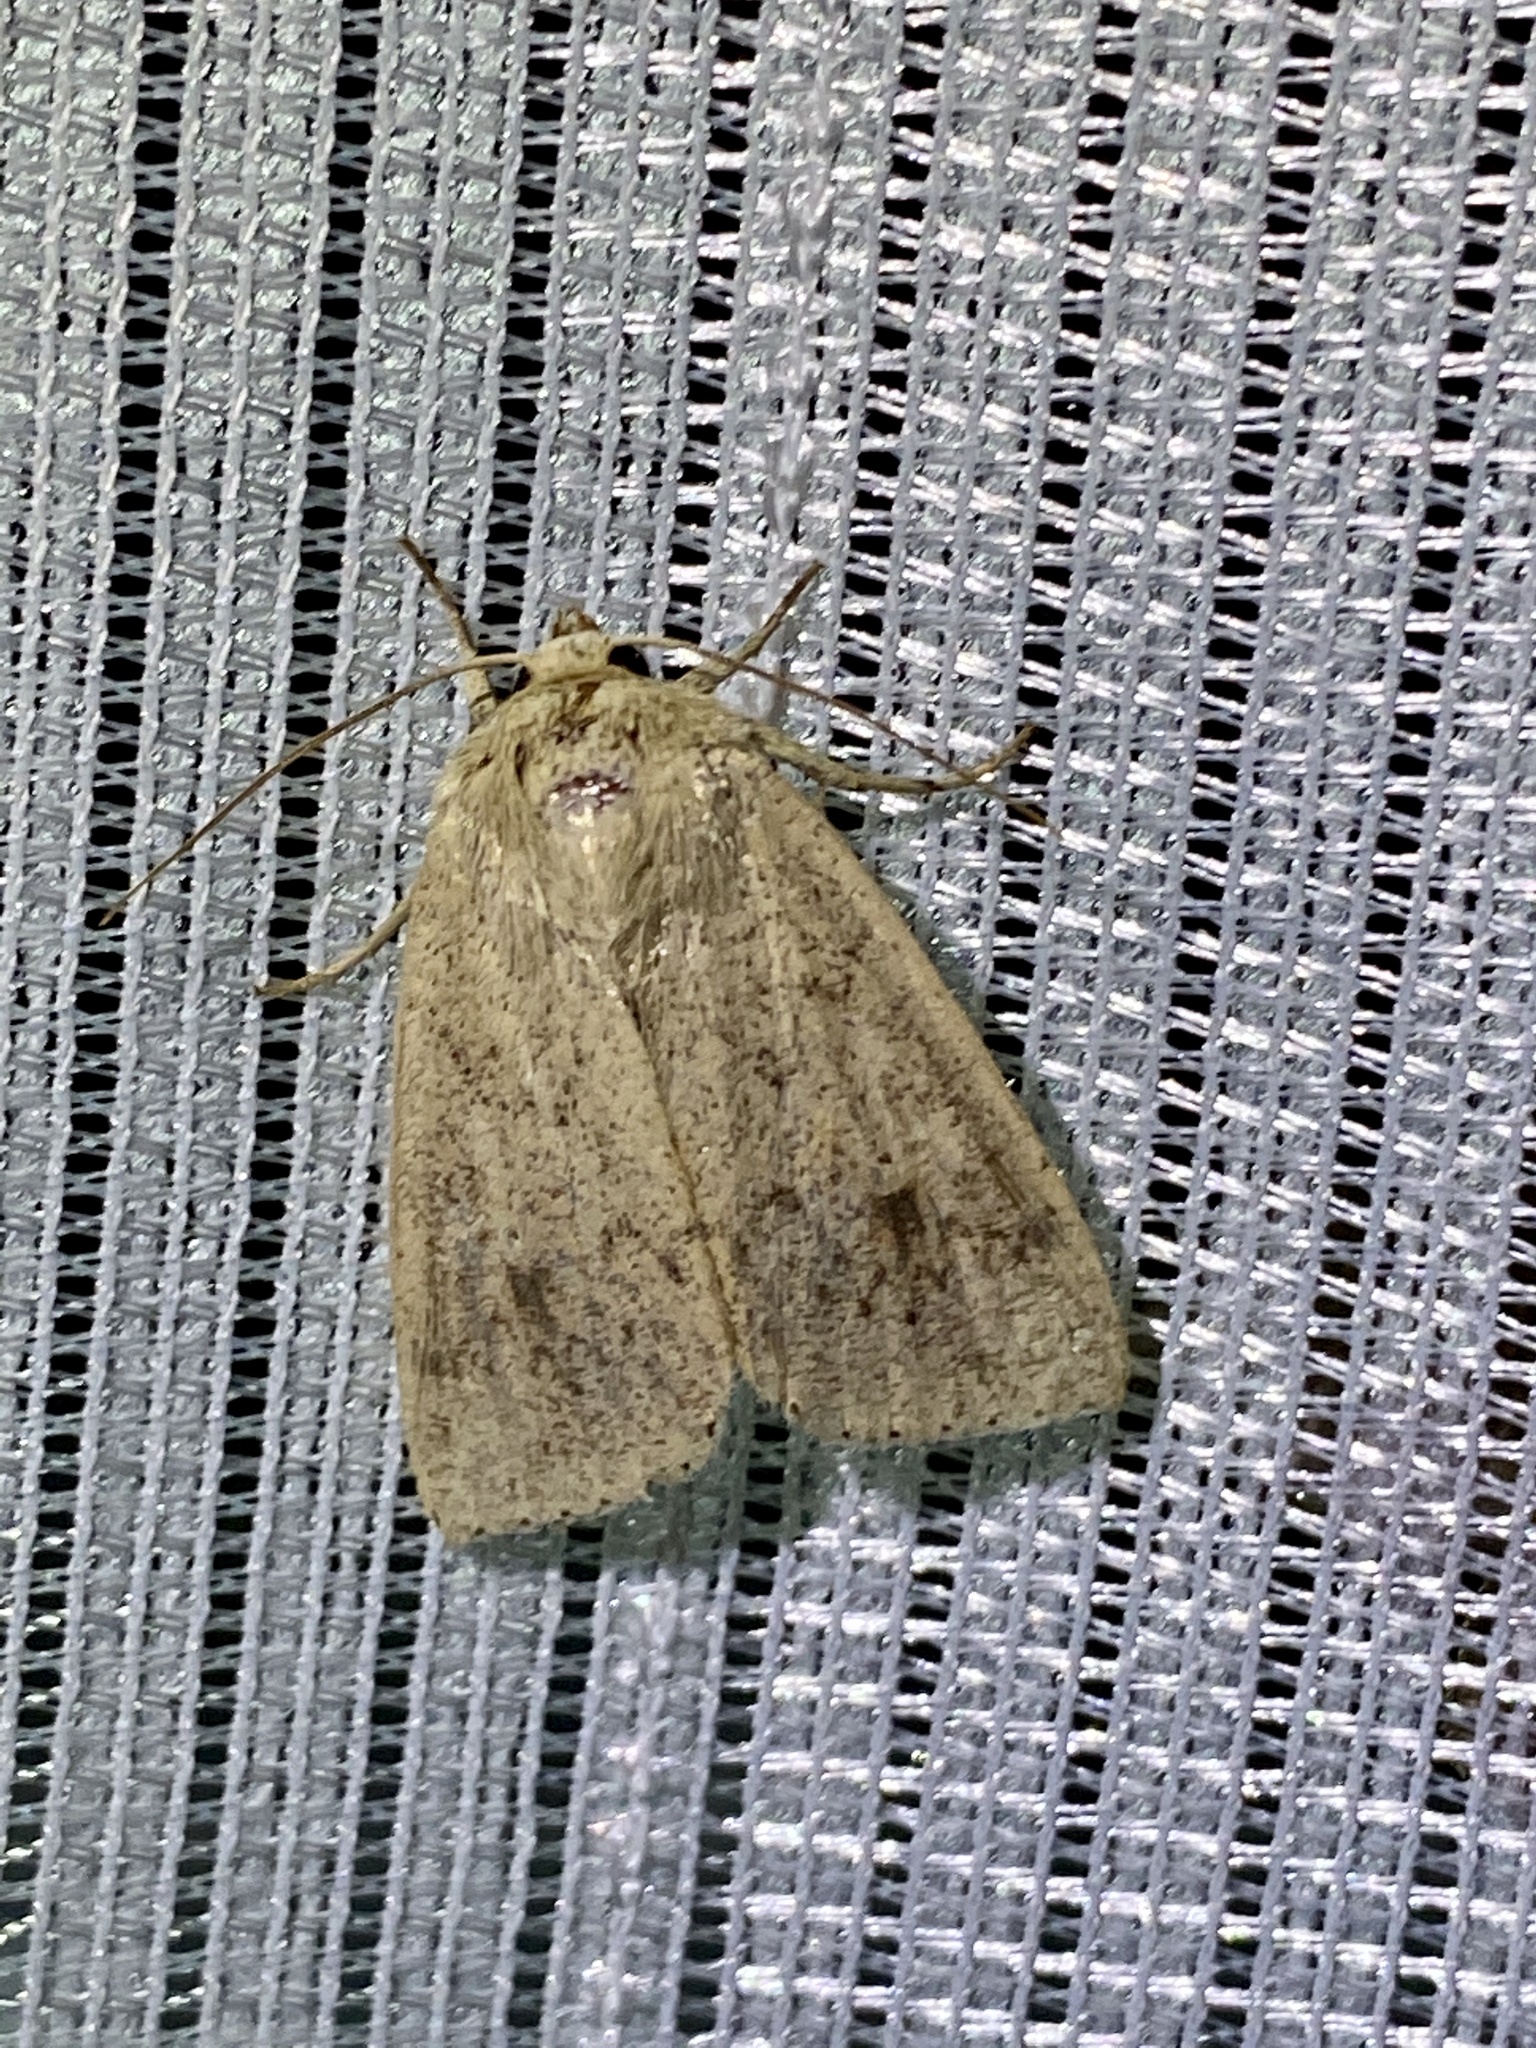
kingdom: Animalia
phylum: Arthropoda
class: Insecta
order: Lepidoptera
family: Noctuidae
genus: Mythimna
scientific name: Mythimna placida
